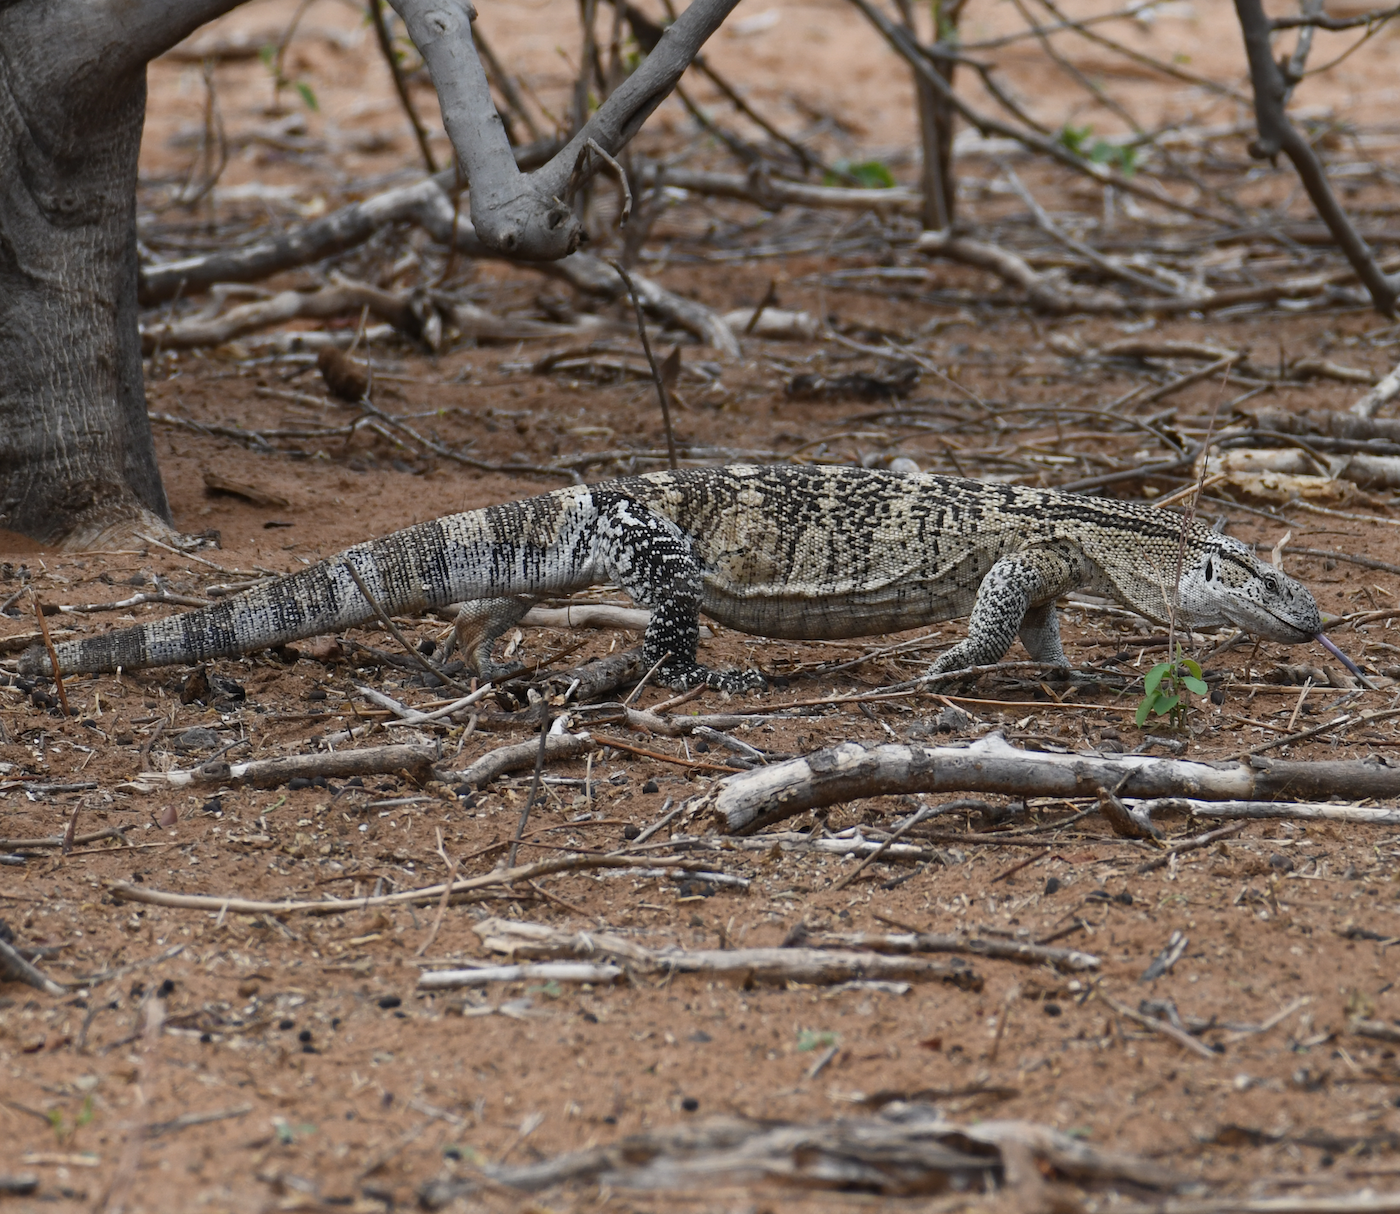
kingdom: Animalia
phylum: Chordata
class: Squamata
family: Varanidae
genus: Varanus
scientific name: Varanus albigularis
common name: White-throated monitor
